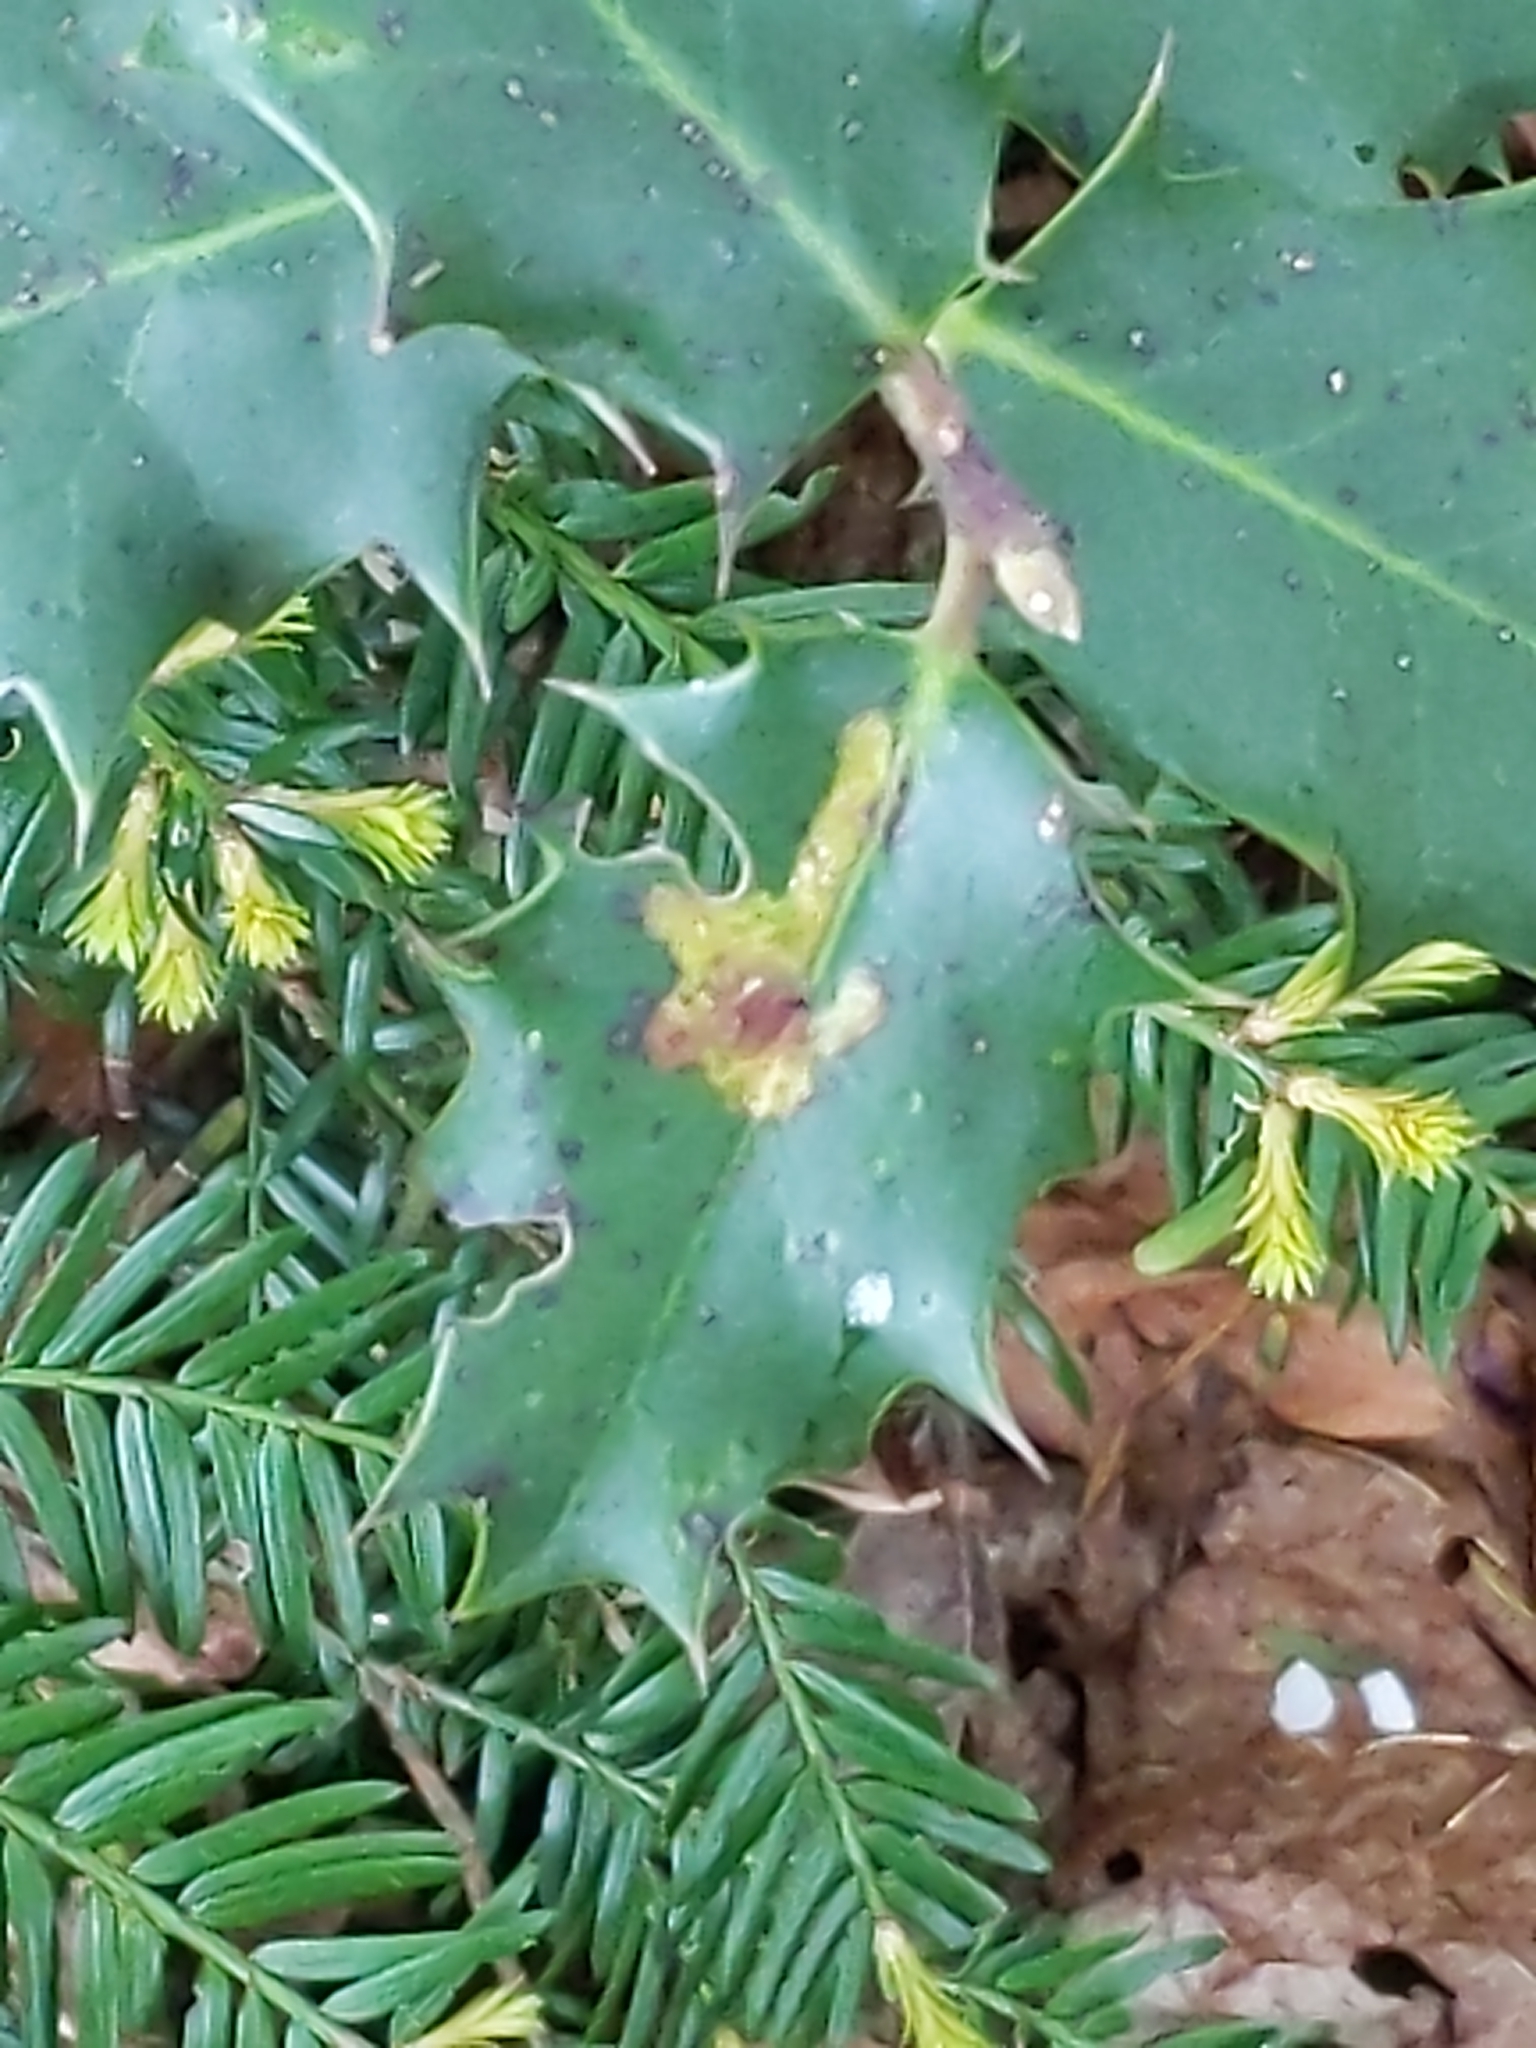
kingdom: Animalia
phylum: Arthropoda
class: Insecta
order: Diptera
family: Agromyzidae
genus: Phytomyza
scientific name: Phytomyza ilicis
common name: Holly leafminer
